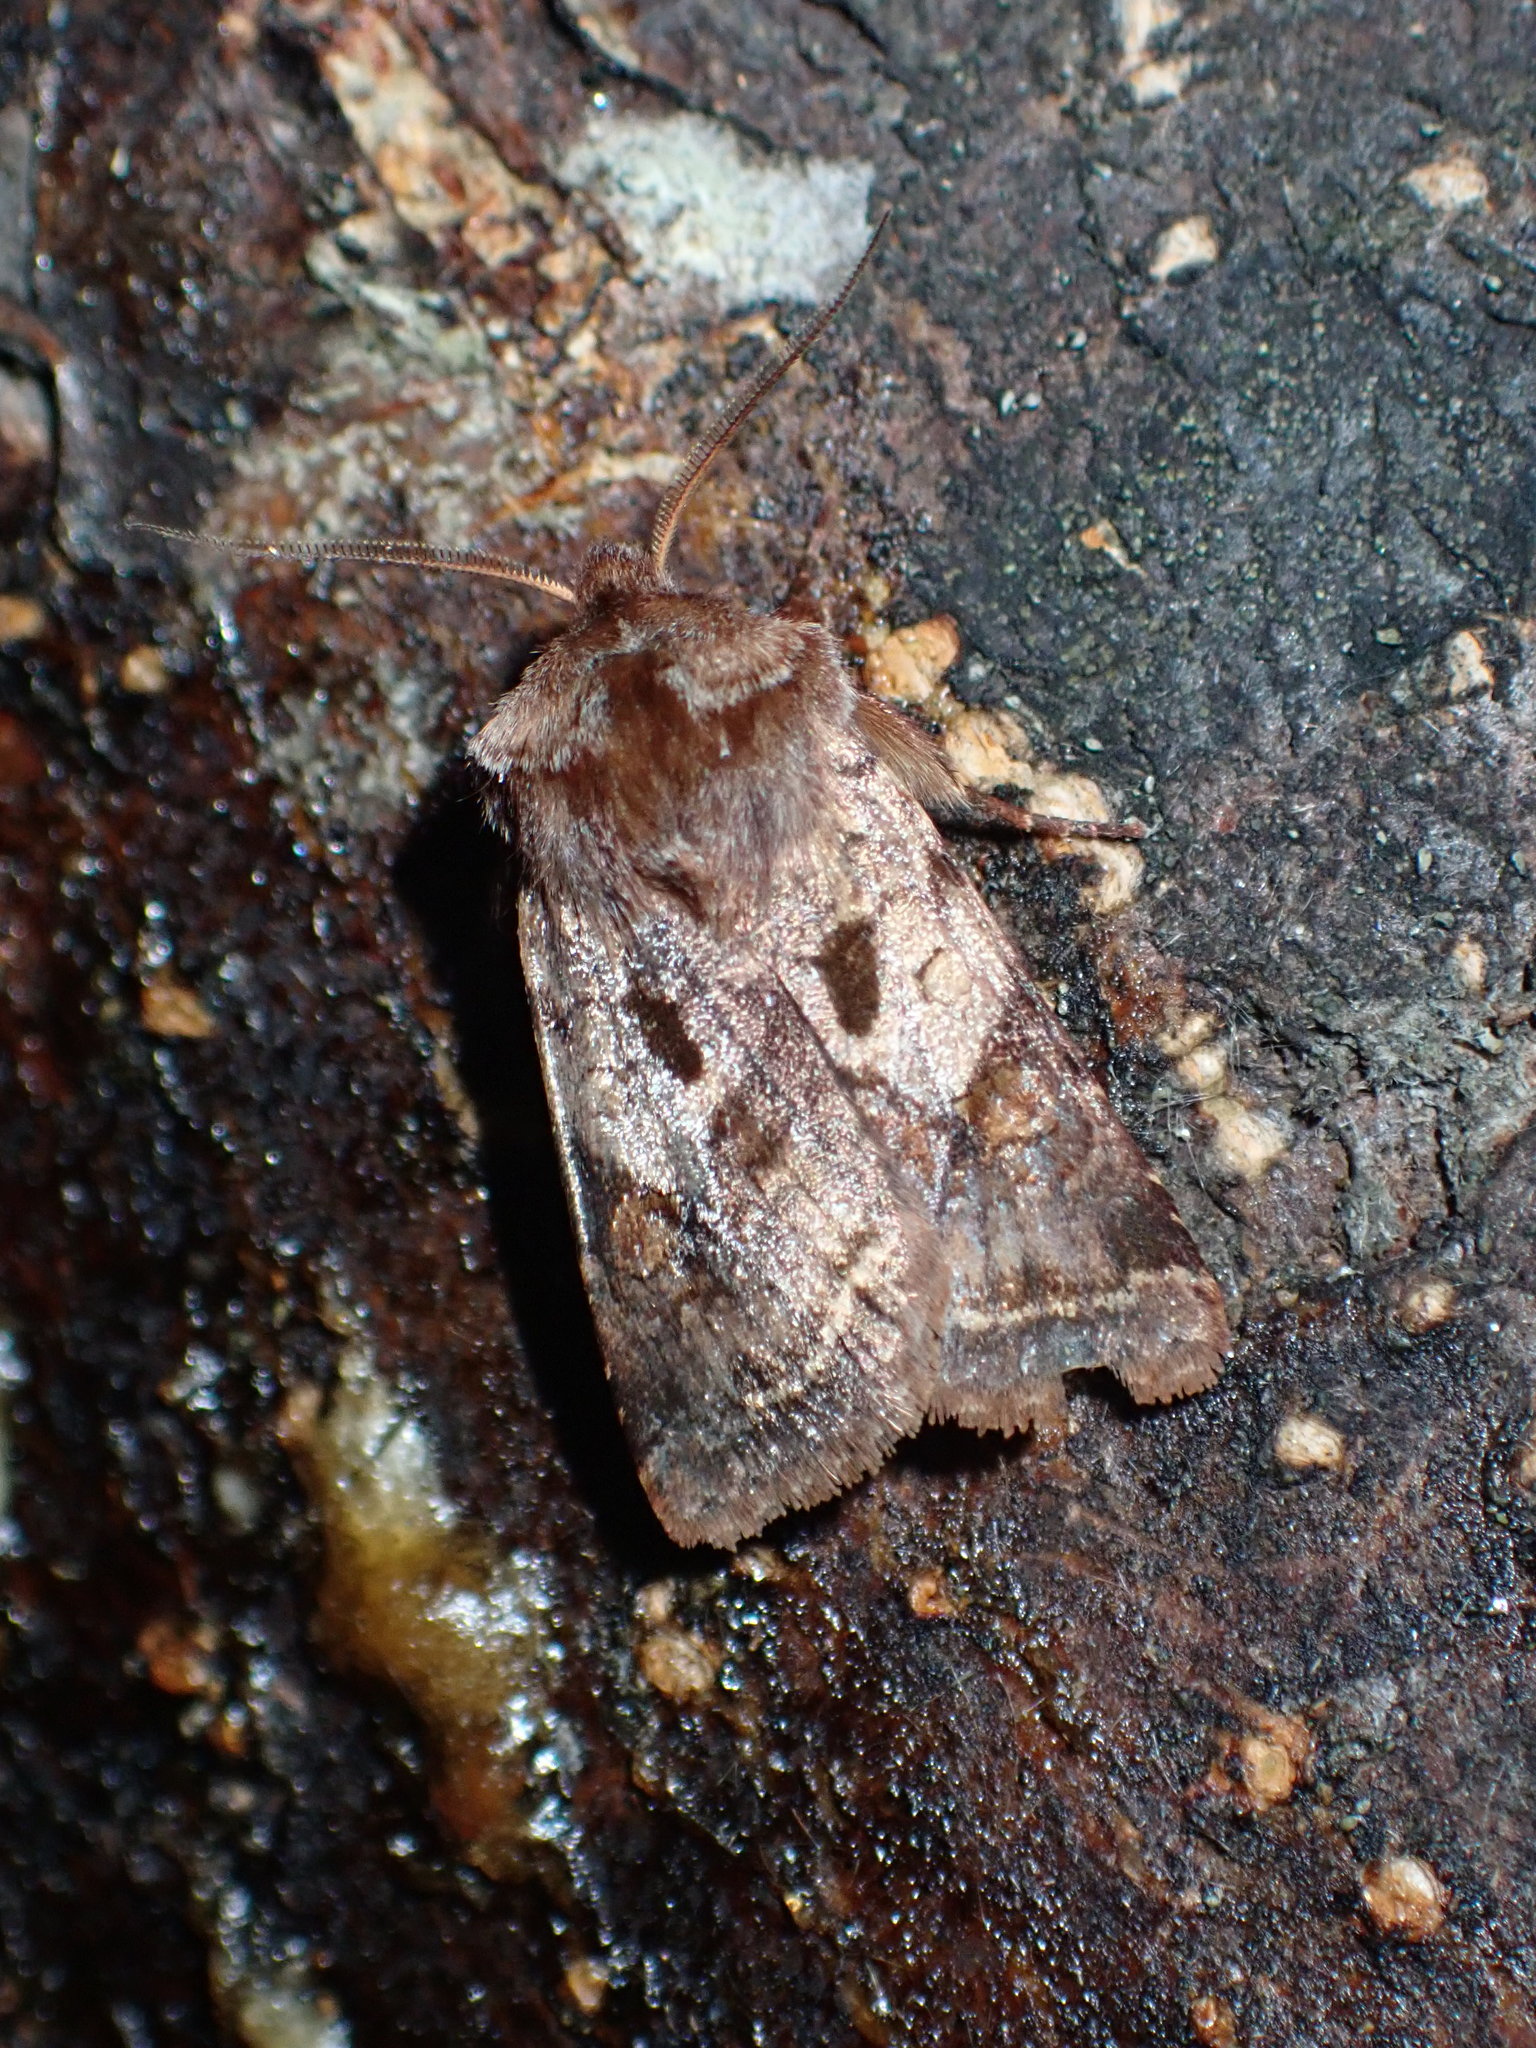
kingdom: Animalia
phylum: Arthropoda
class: Insecta
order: Lepidoptera
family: Noctuidae
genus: Cerastis
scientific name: Cerastis salicarum
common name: Willow dart
